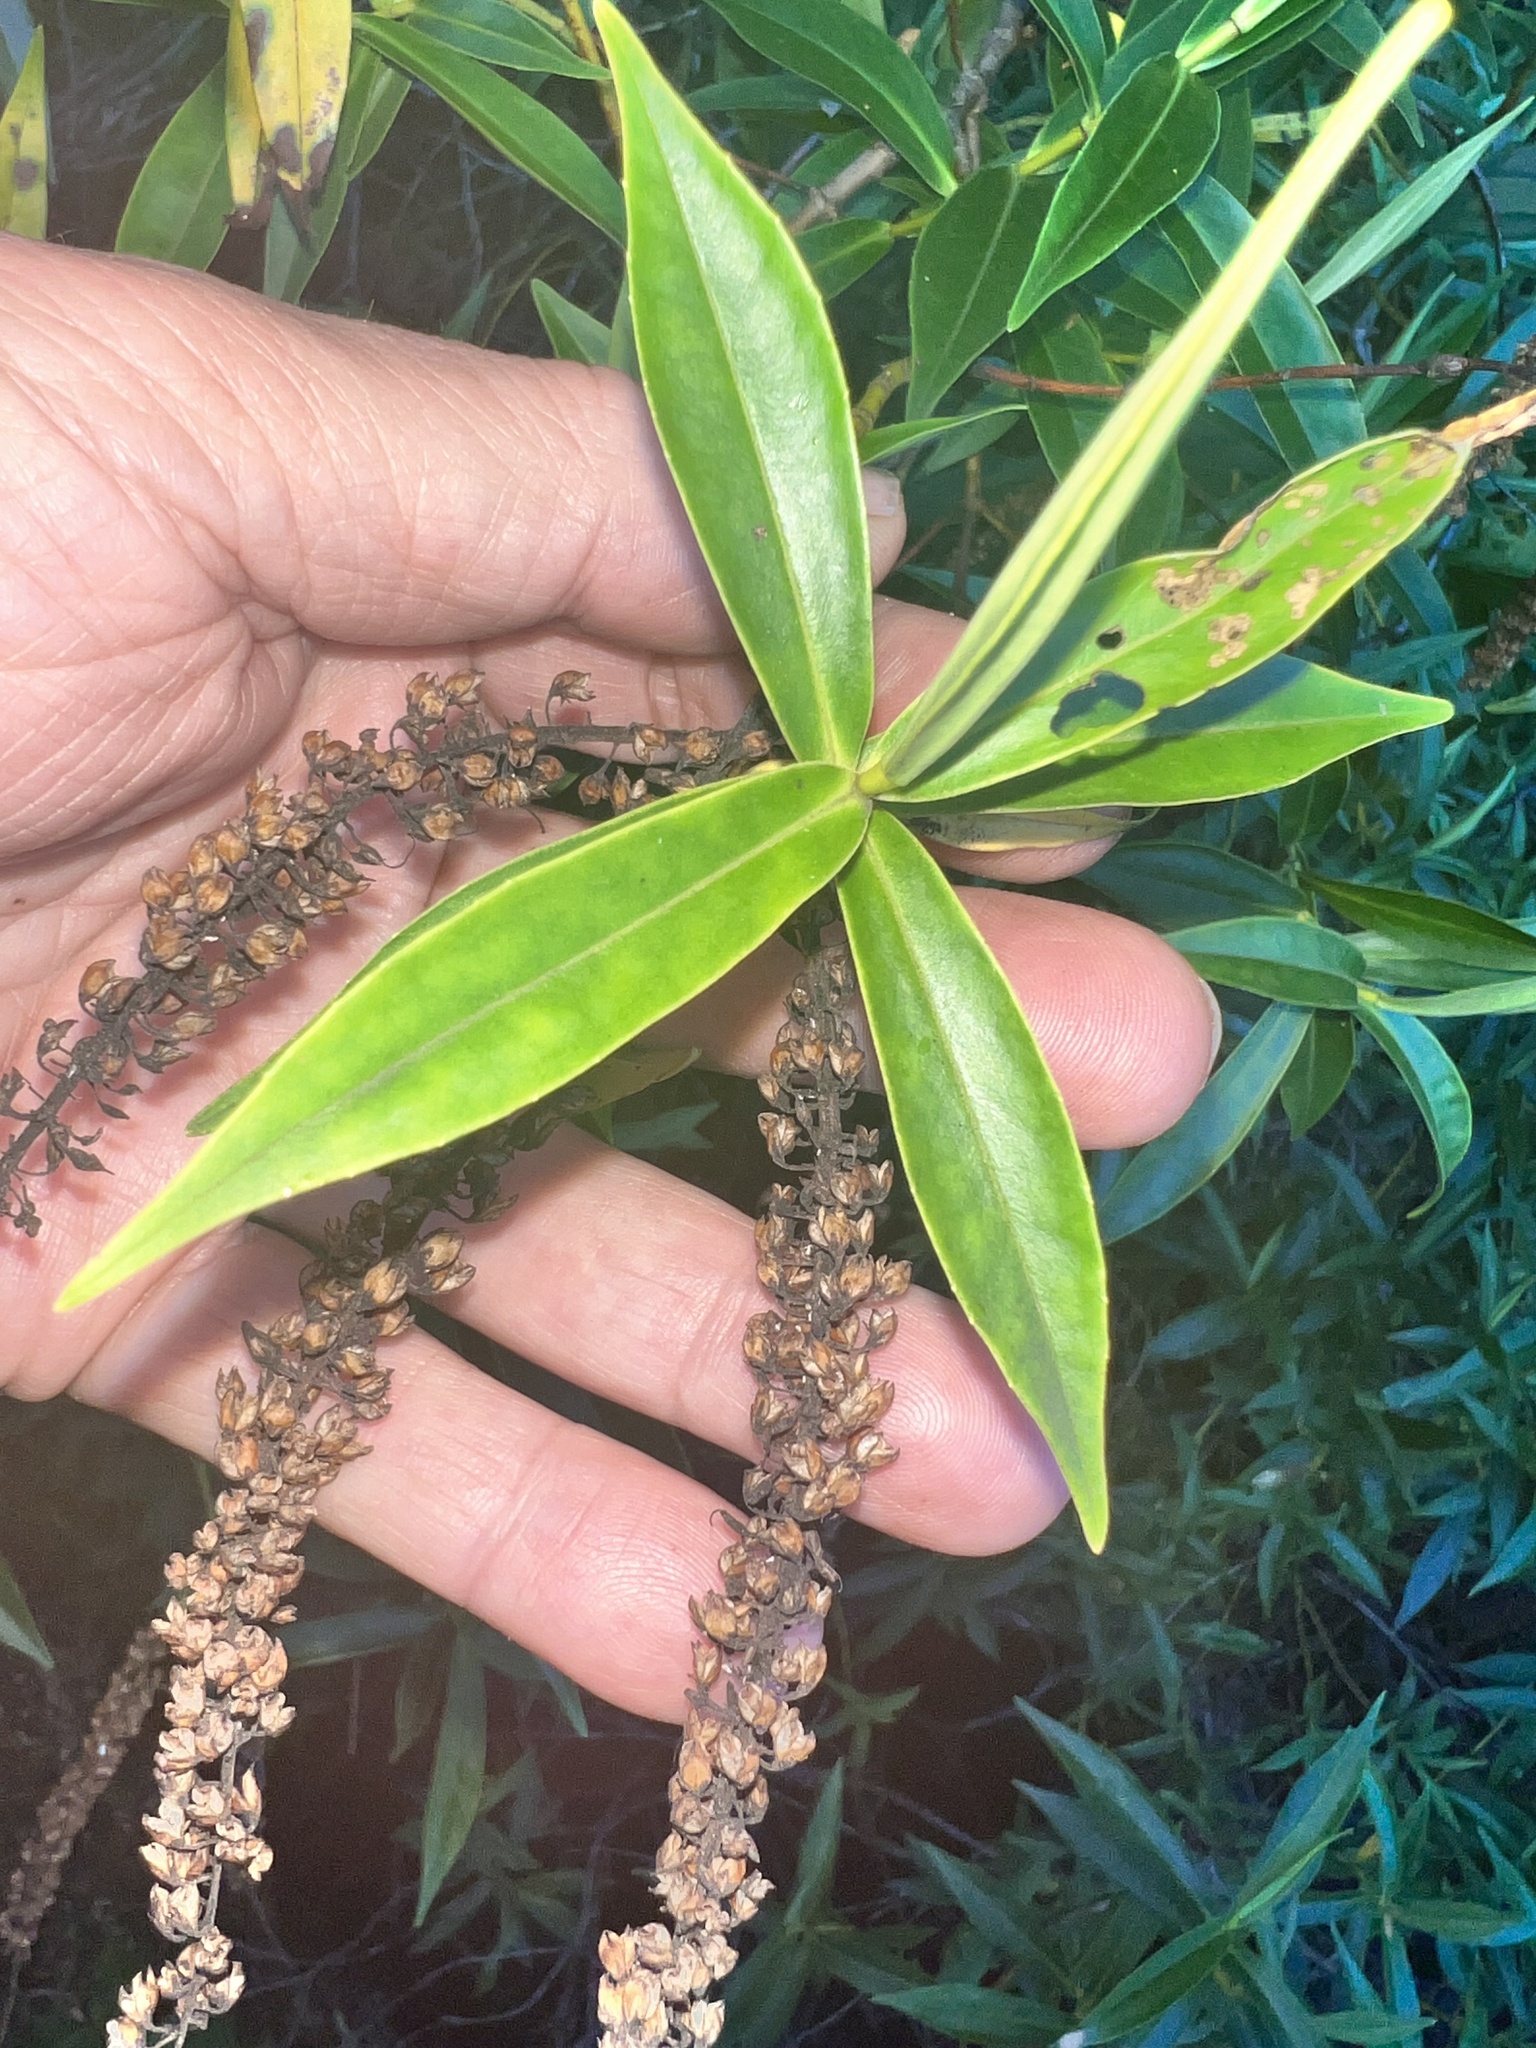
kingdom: Plantae
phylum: Tracheophyta
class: Magnoliopsida
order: Lamiales
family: Plantaginaceae
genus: Veronica
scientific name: Veronica stricta
